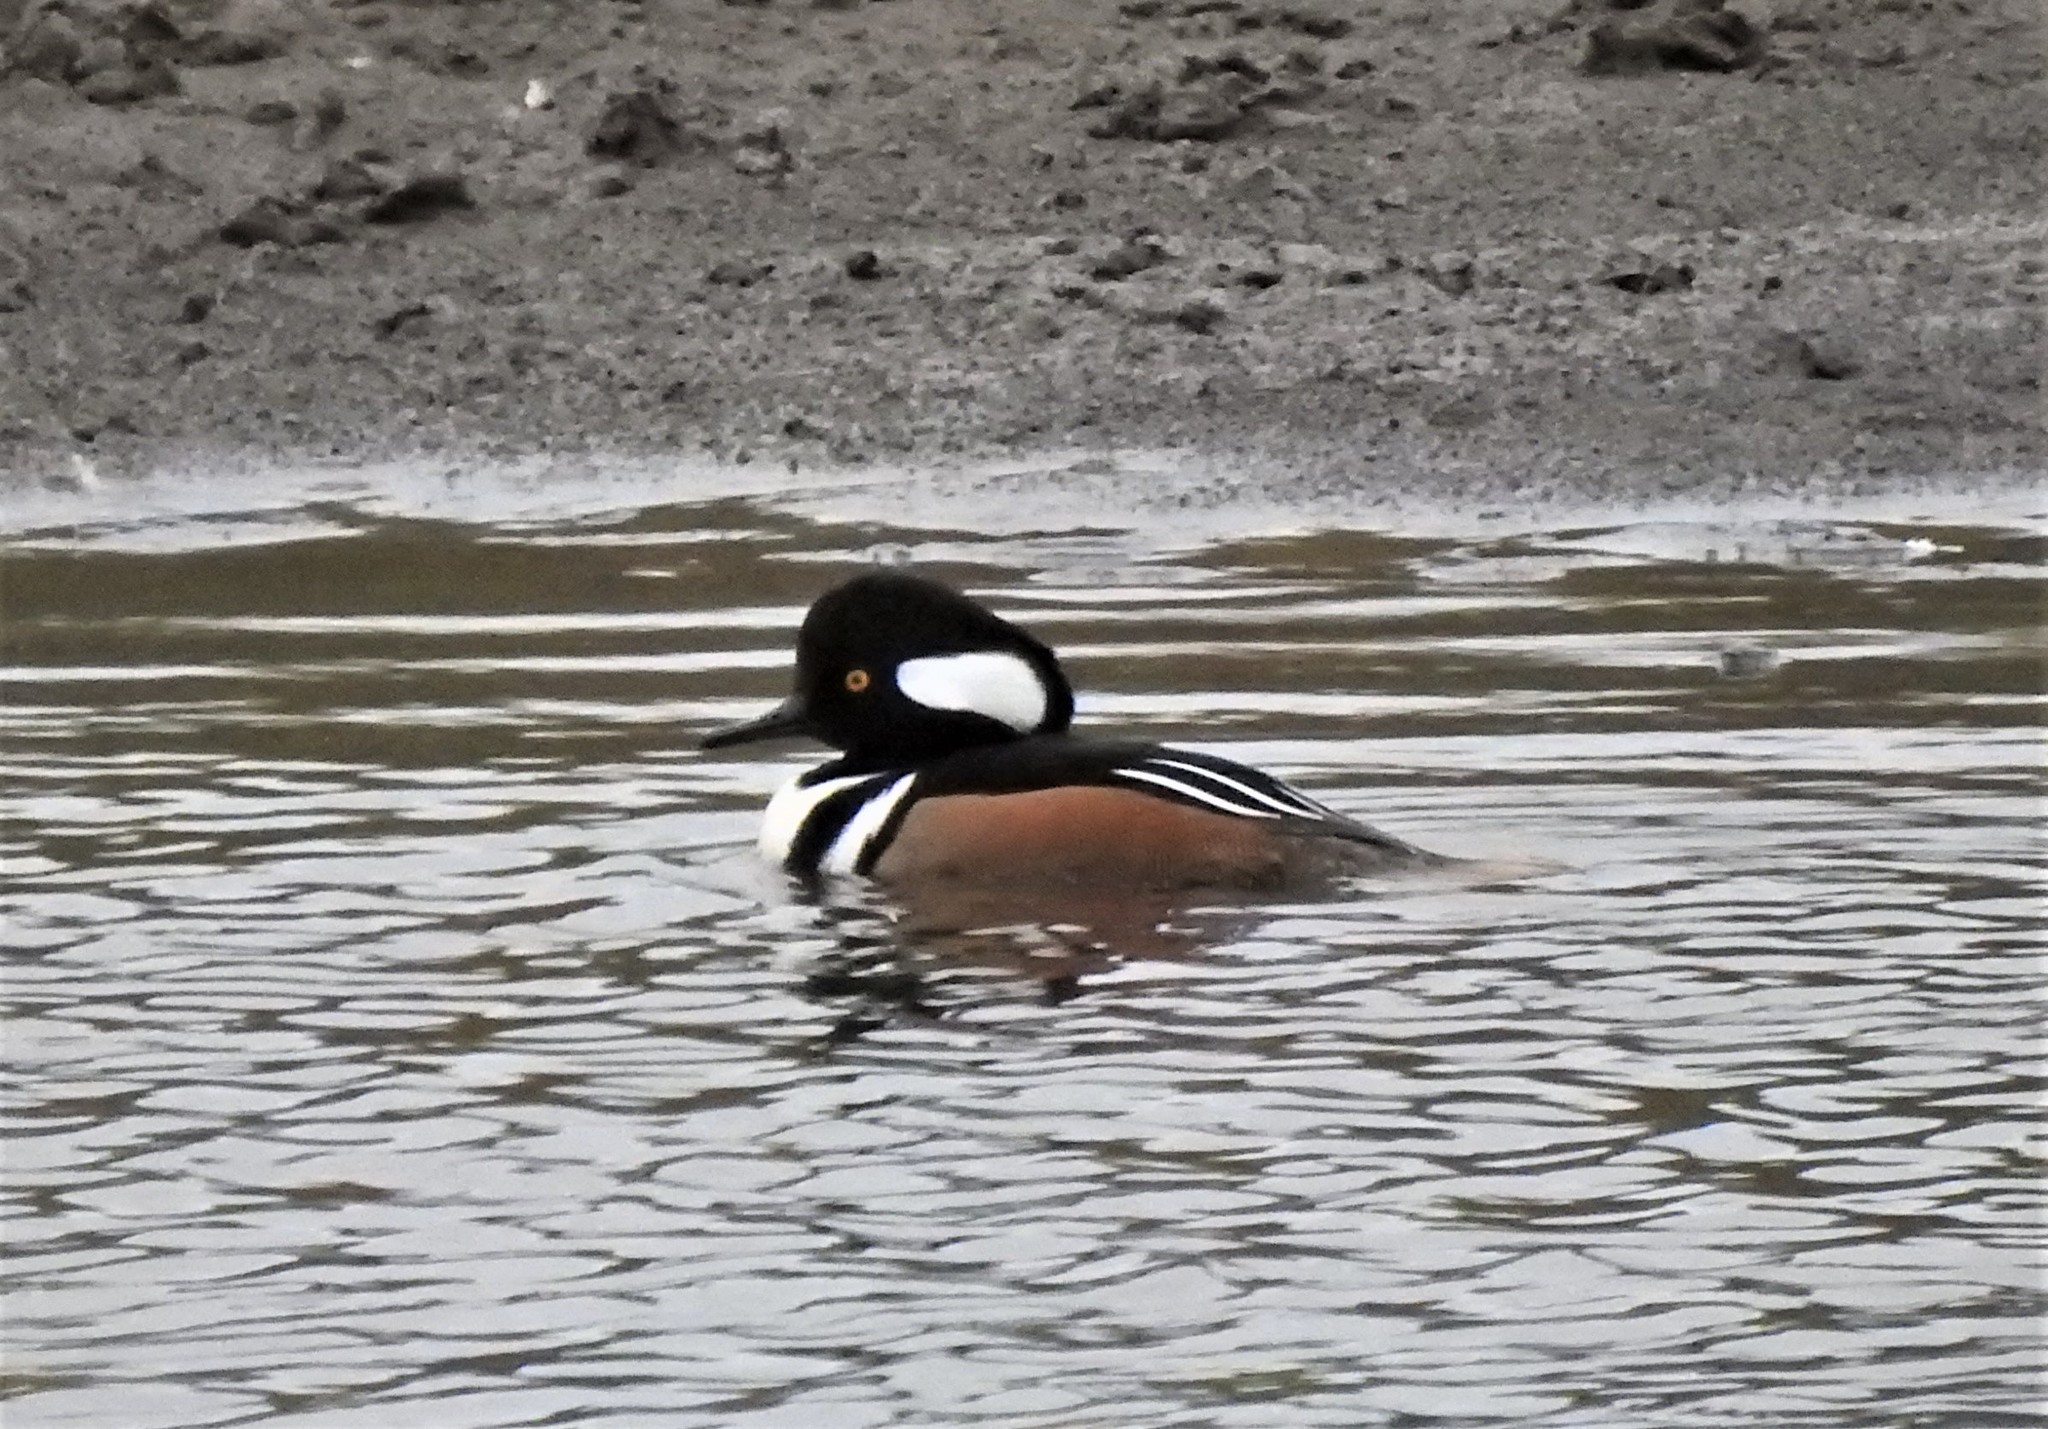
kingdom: Animalia
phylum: Chordata
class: Aves
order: Anseriformes
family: Anatidae
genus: Lophodytes
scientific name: Lophodytes cucullatus
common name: Hooded merganser
